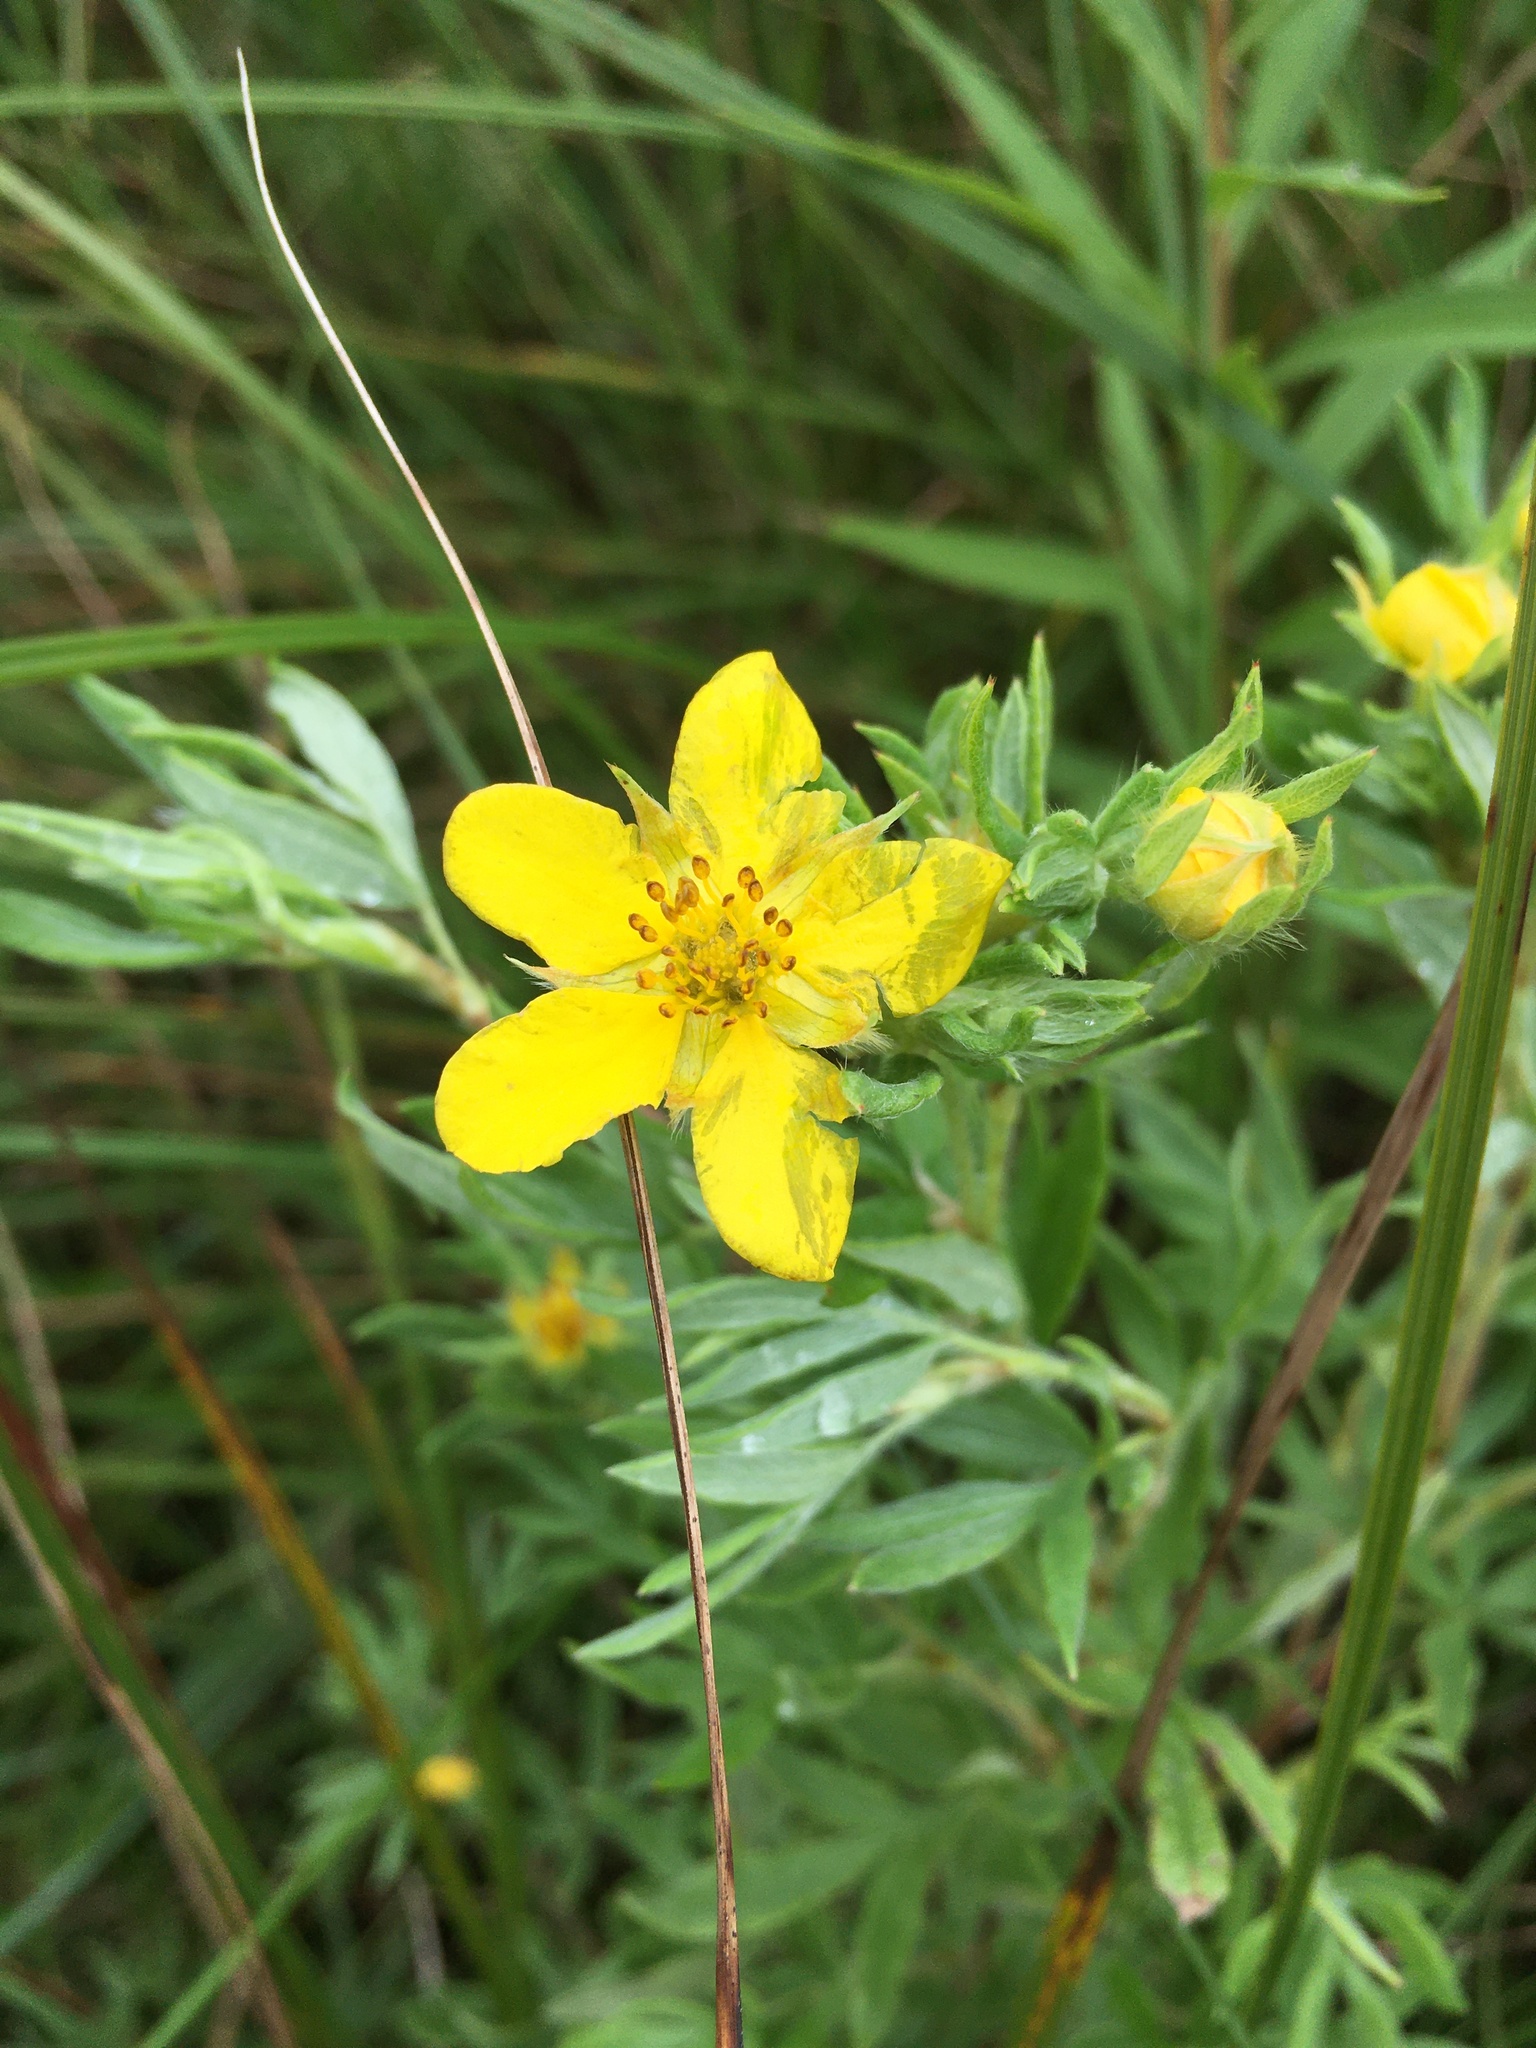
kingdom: Plantae
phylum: Tracheophyta
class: Magnoliopsida
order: Rosales
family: Rosaceae
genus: Dasiphora
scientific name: Dasiphora fruticosa
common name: Shrubby cinquefoil
